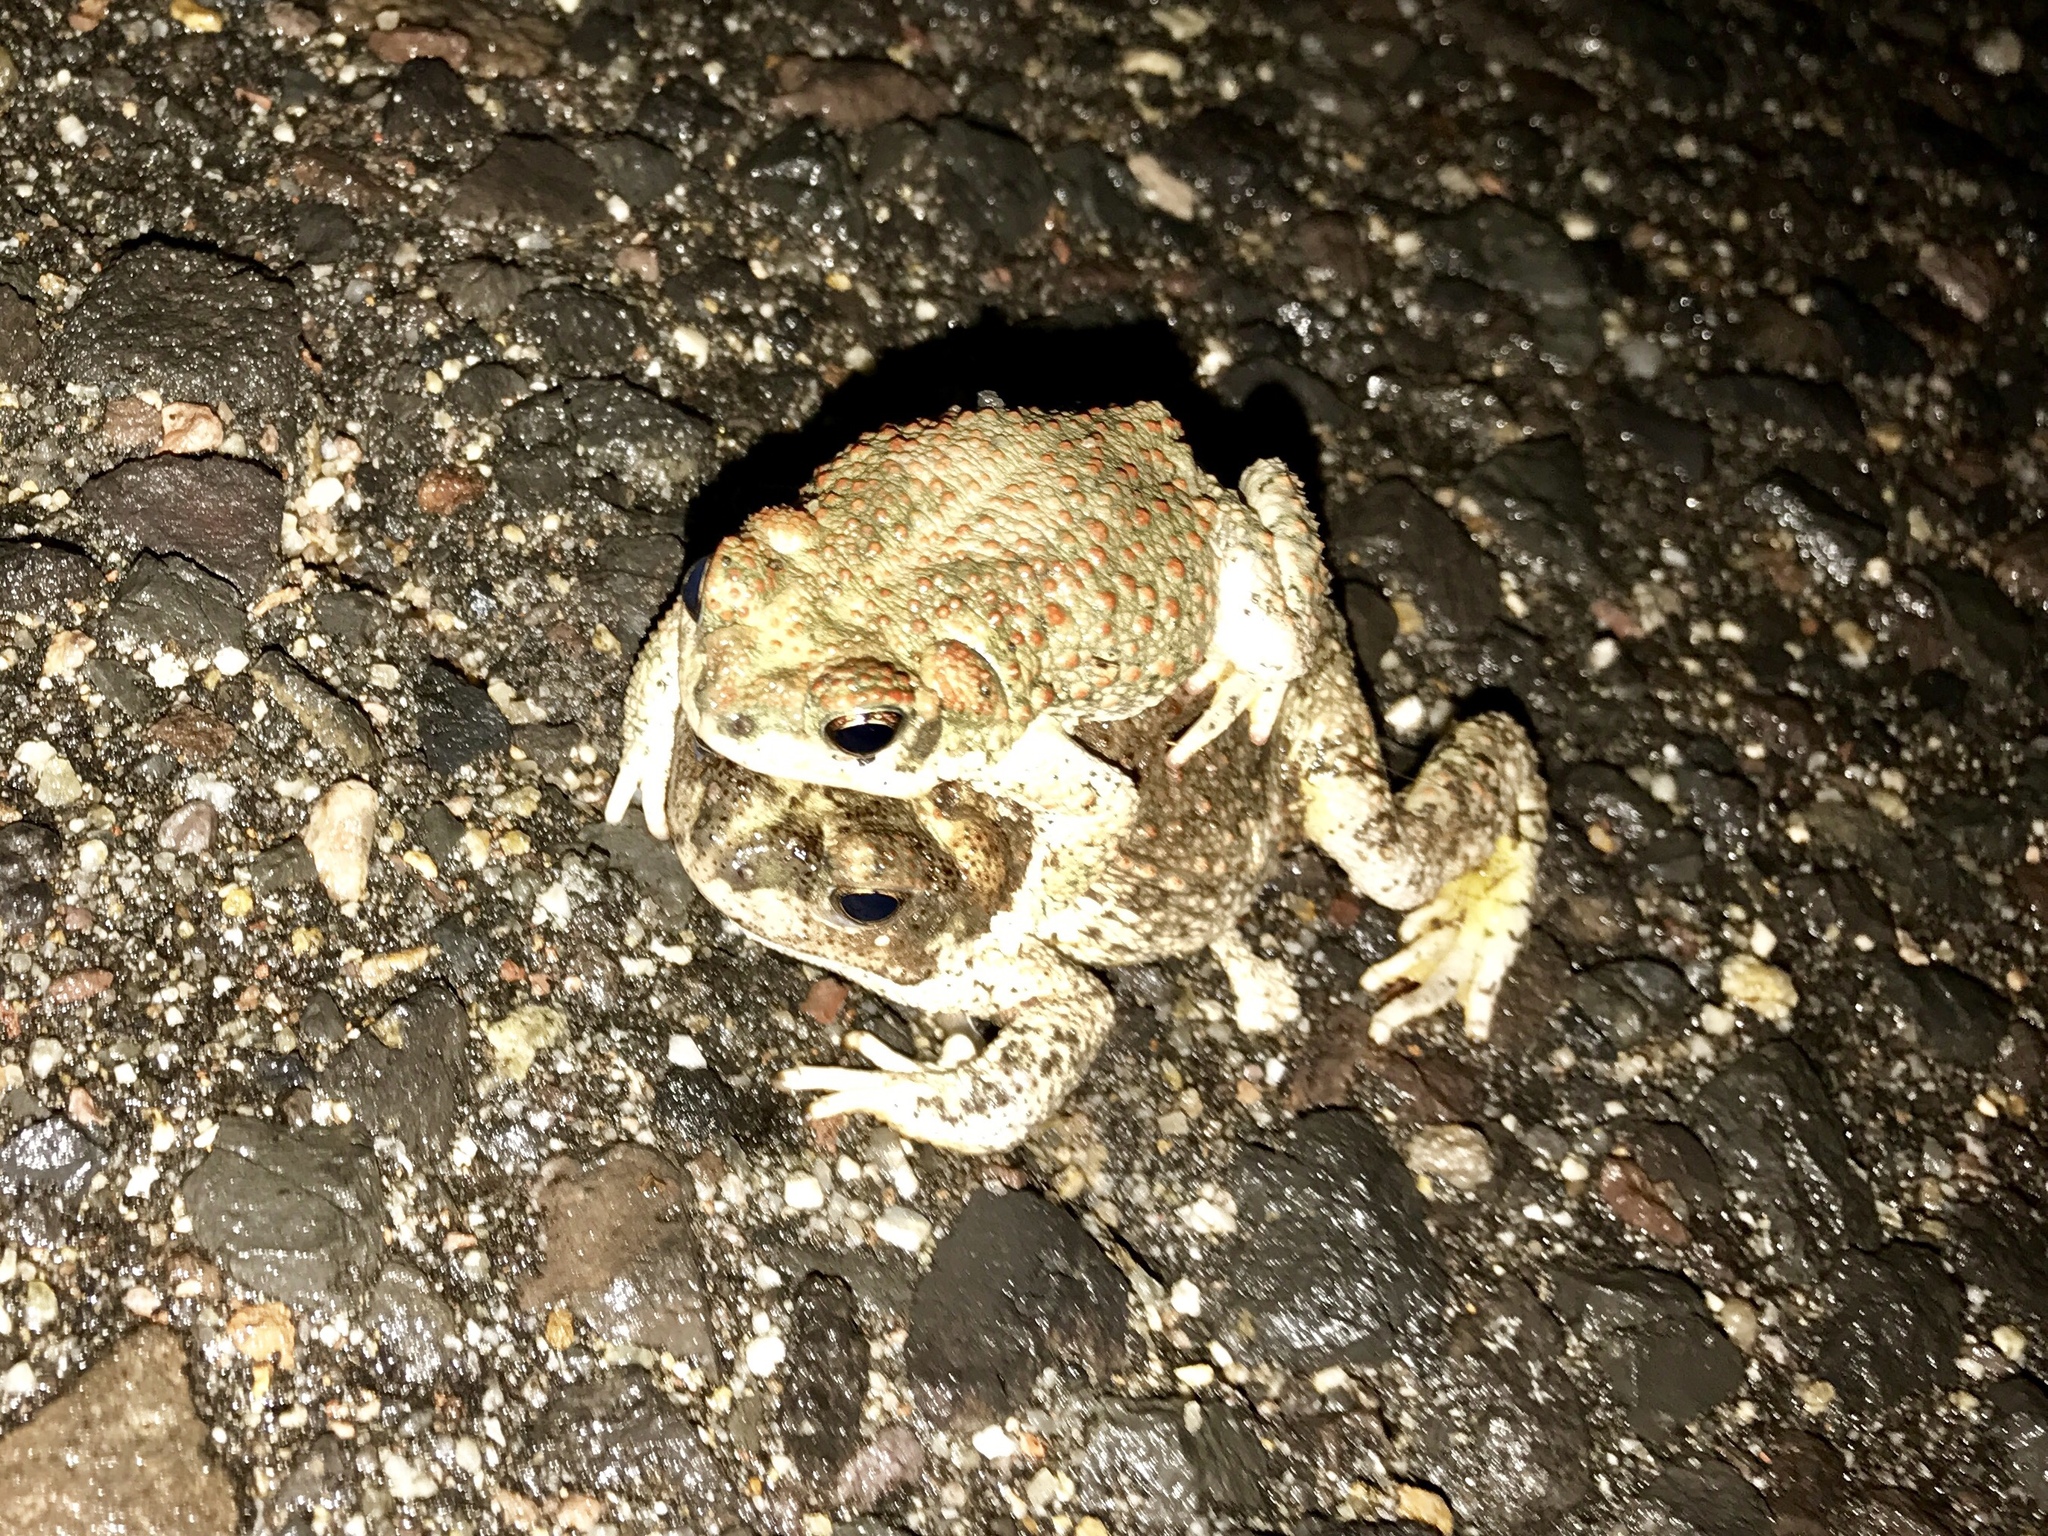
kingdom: Animalia
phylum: Chordata
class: Amphibia
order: Anura
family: Bufonidae
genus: Anaxyrus
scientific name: Anaxyrus punctatus
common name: Red-spotted toad
